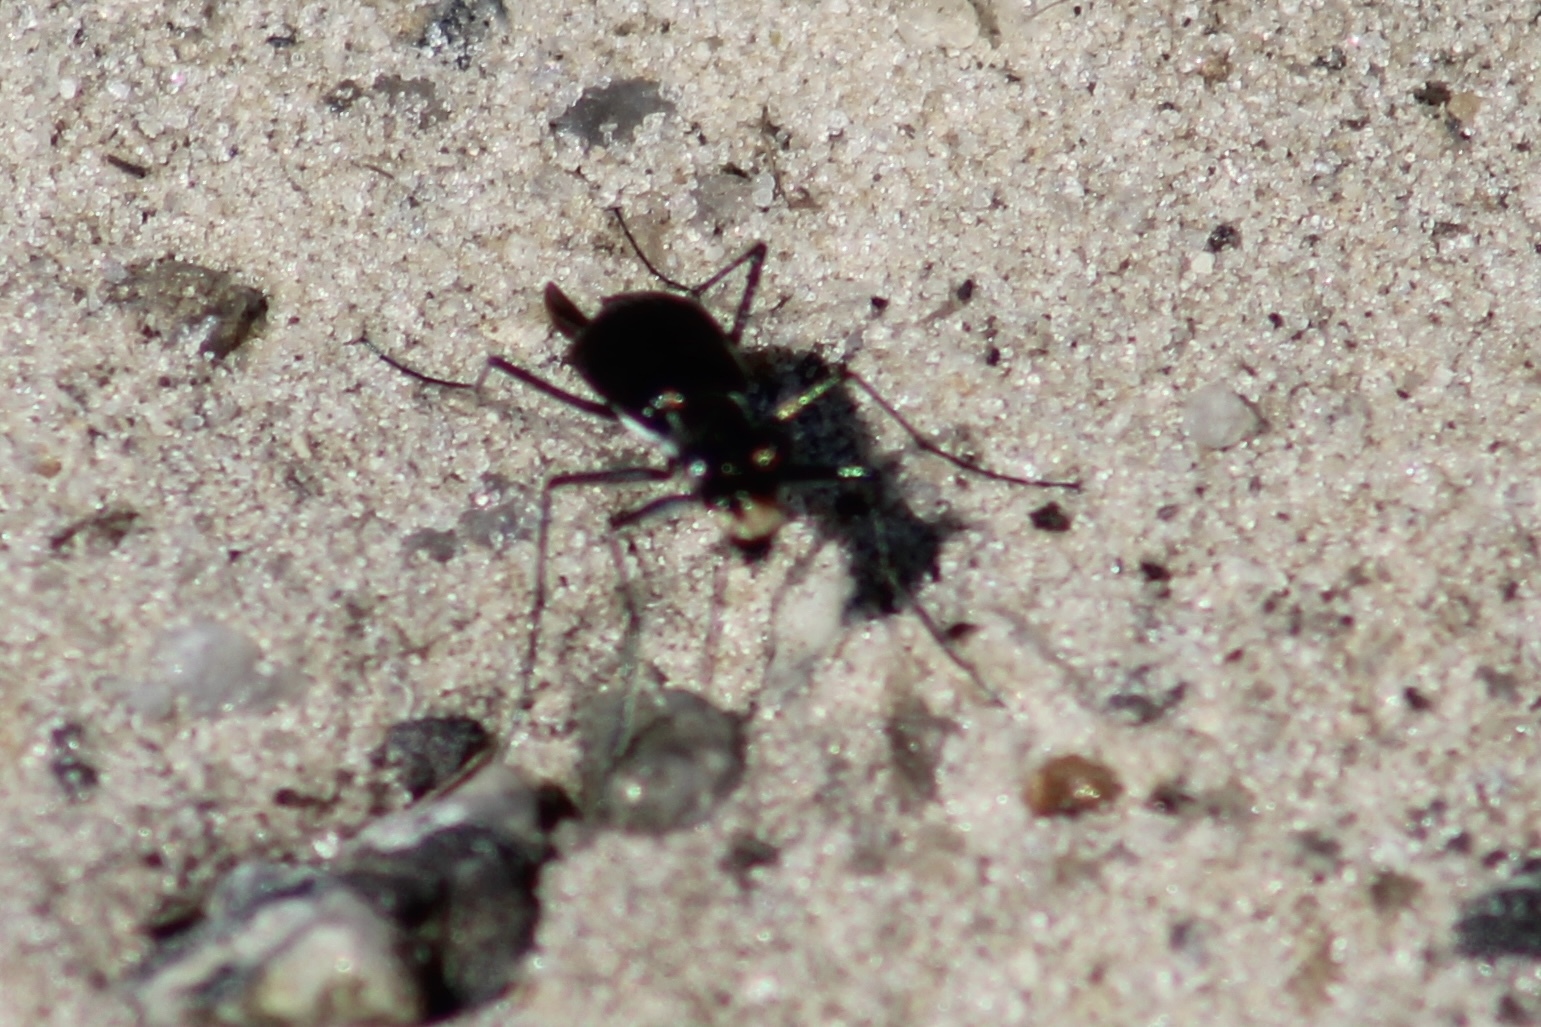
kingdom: Animalia
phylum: Arthropoda
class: Insecta
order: Coleoptera
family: Carabidae
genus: Cicindela
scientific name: Cicindela abdominalis
